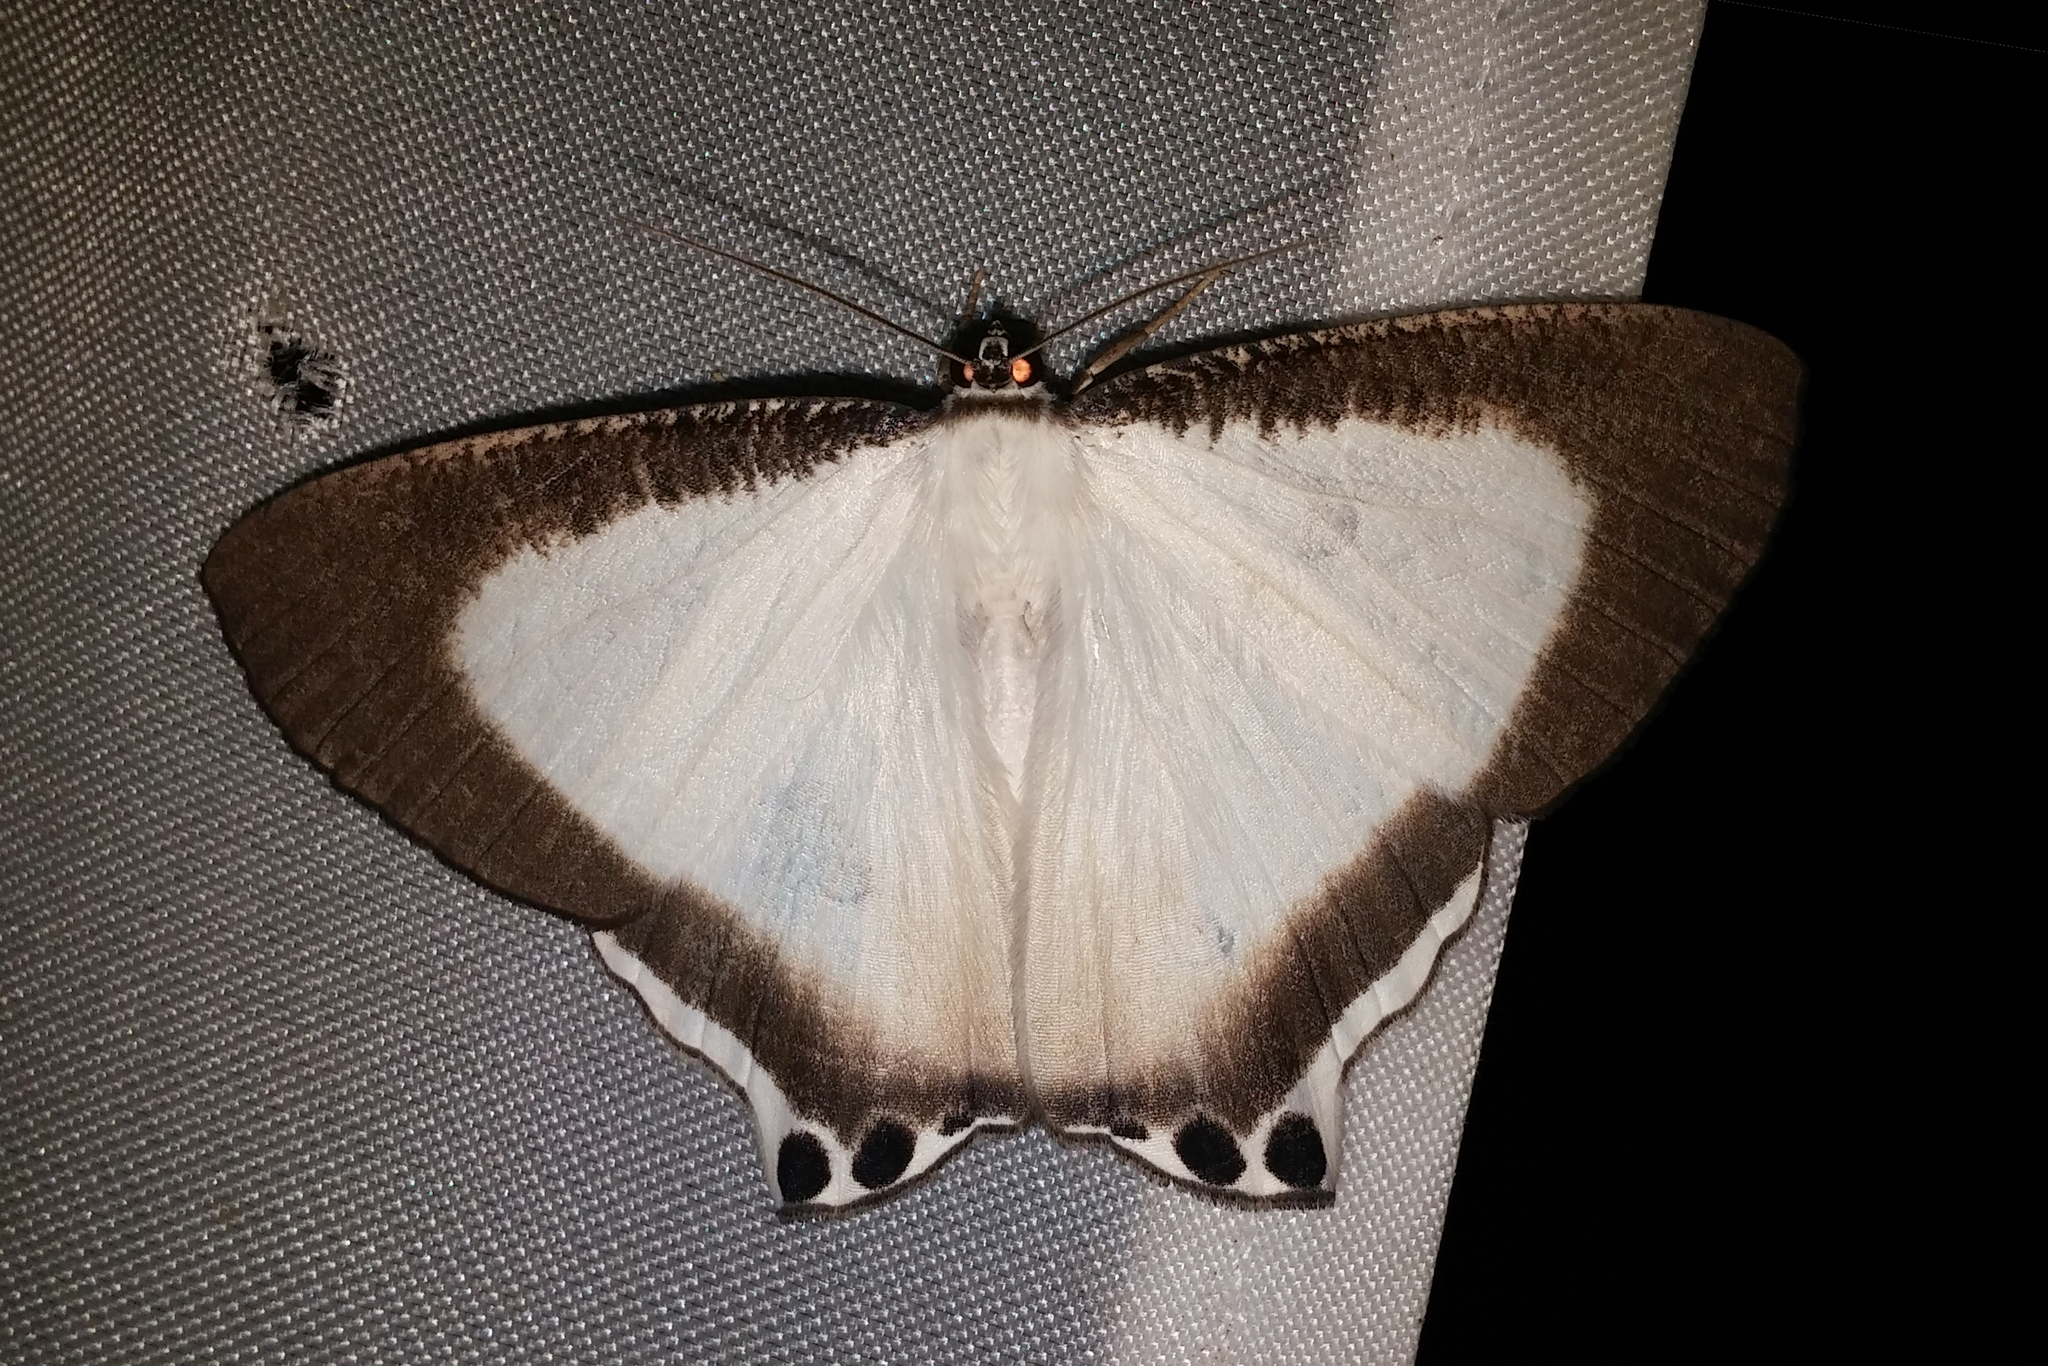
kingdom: Animalia
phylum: Arthropoda
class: Insecta
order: Lepidoptera
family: Uraniidae
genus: Cyphura
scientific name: Cyphura caudiferaria
